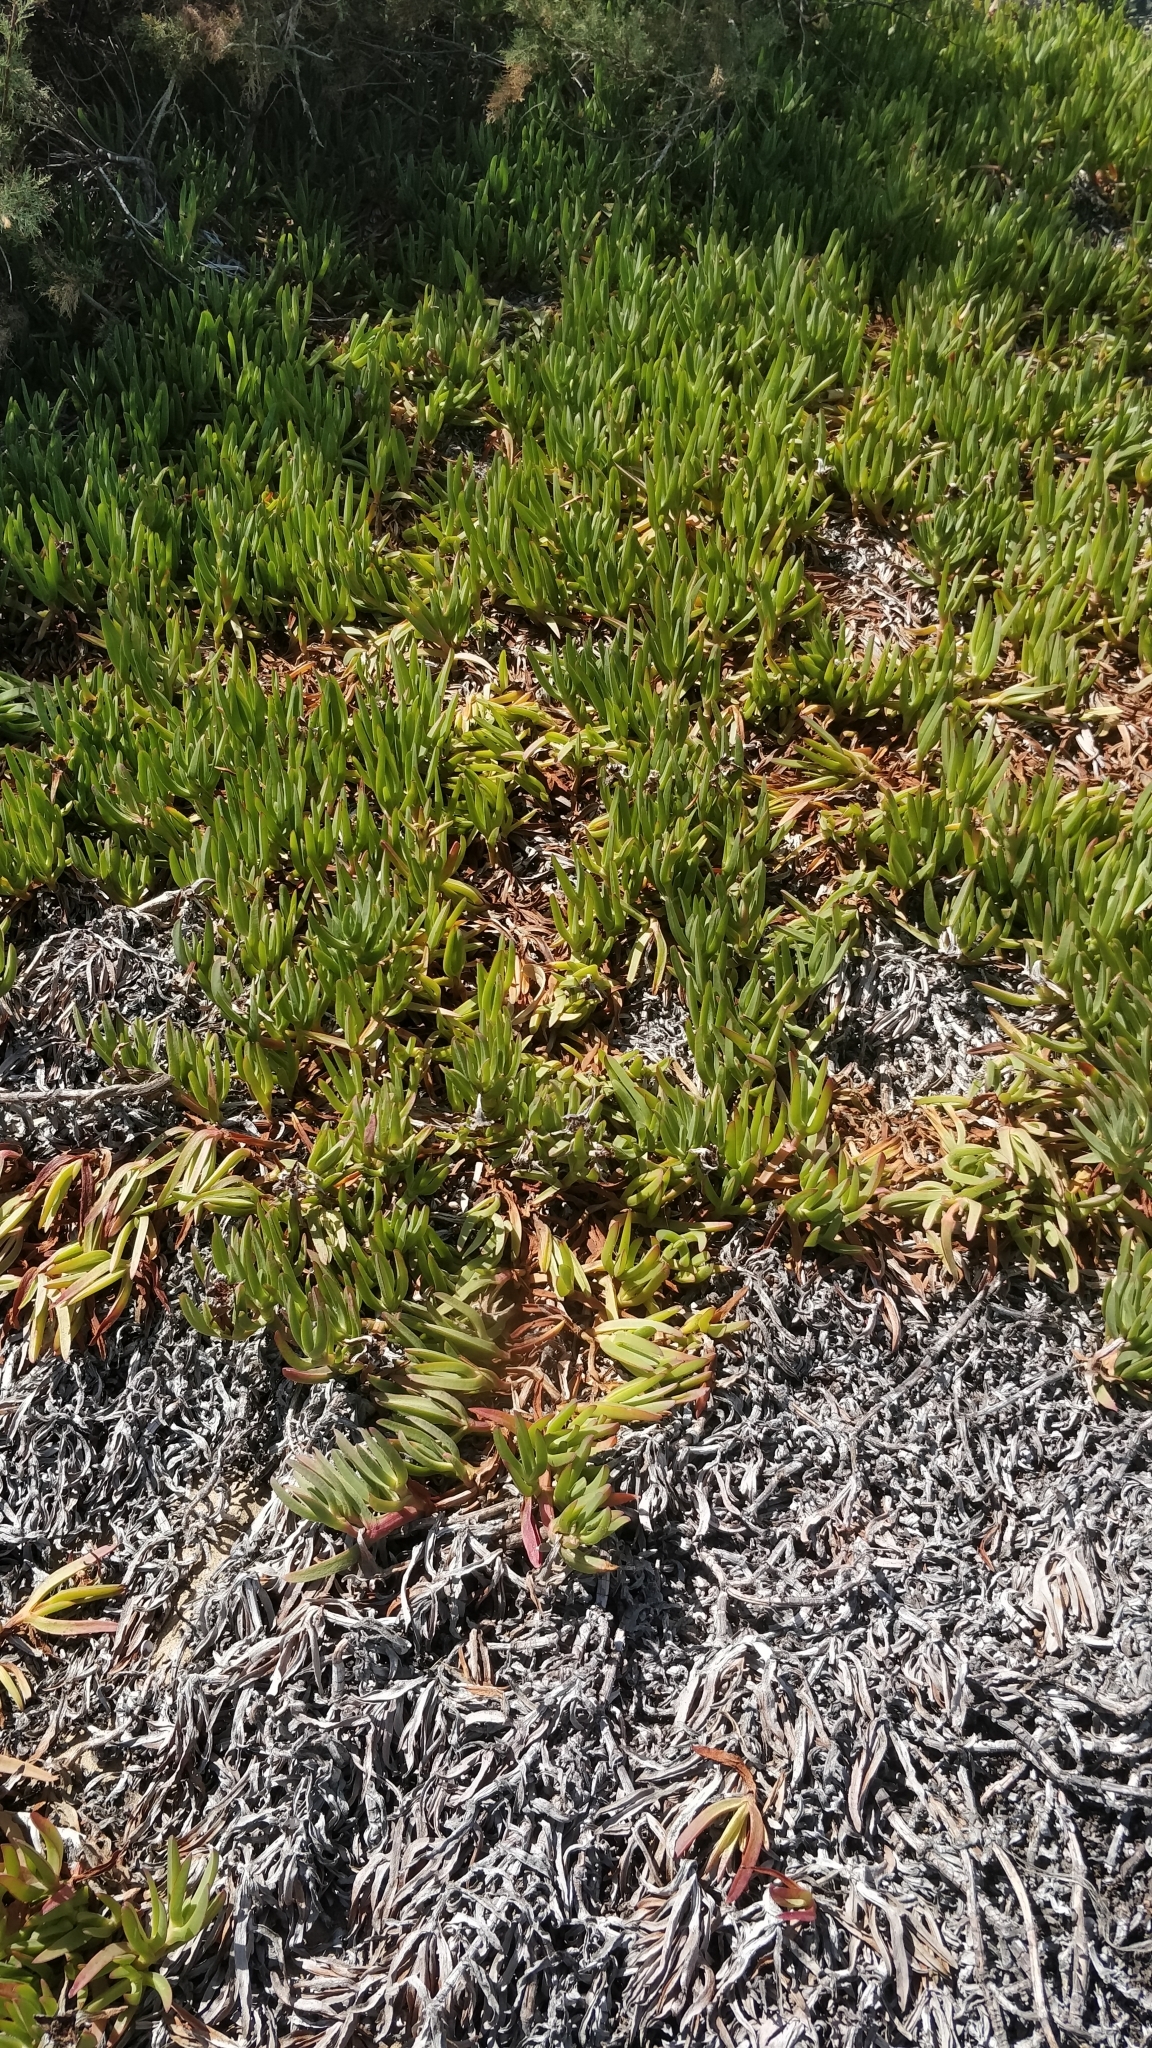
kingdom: Plantae
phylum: Tracheophyta
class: Magnoliopsida
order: Caryophyllales
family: Aizoaceae
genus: Carpobrotus
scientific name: Carpobrotus edulis
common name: Hottentot-fig
